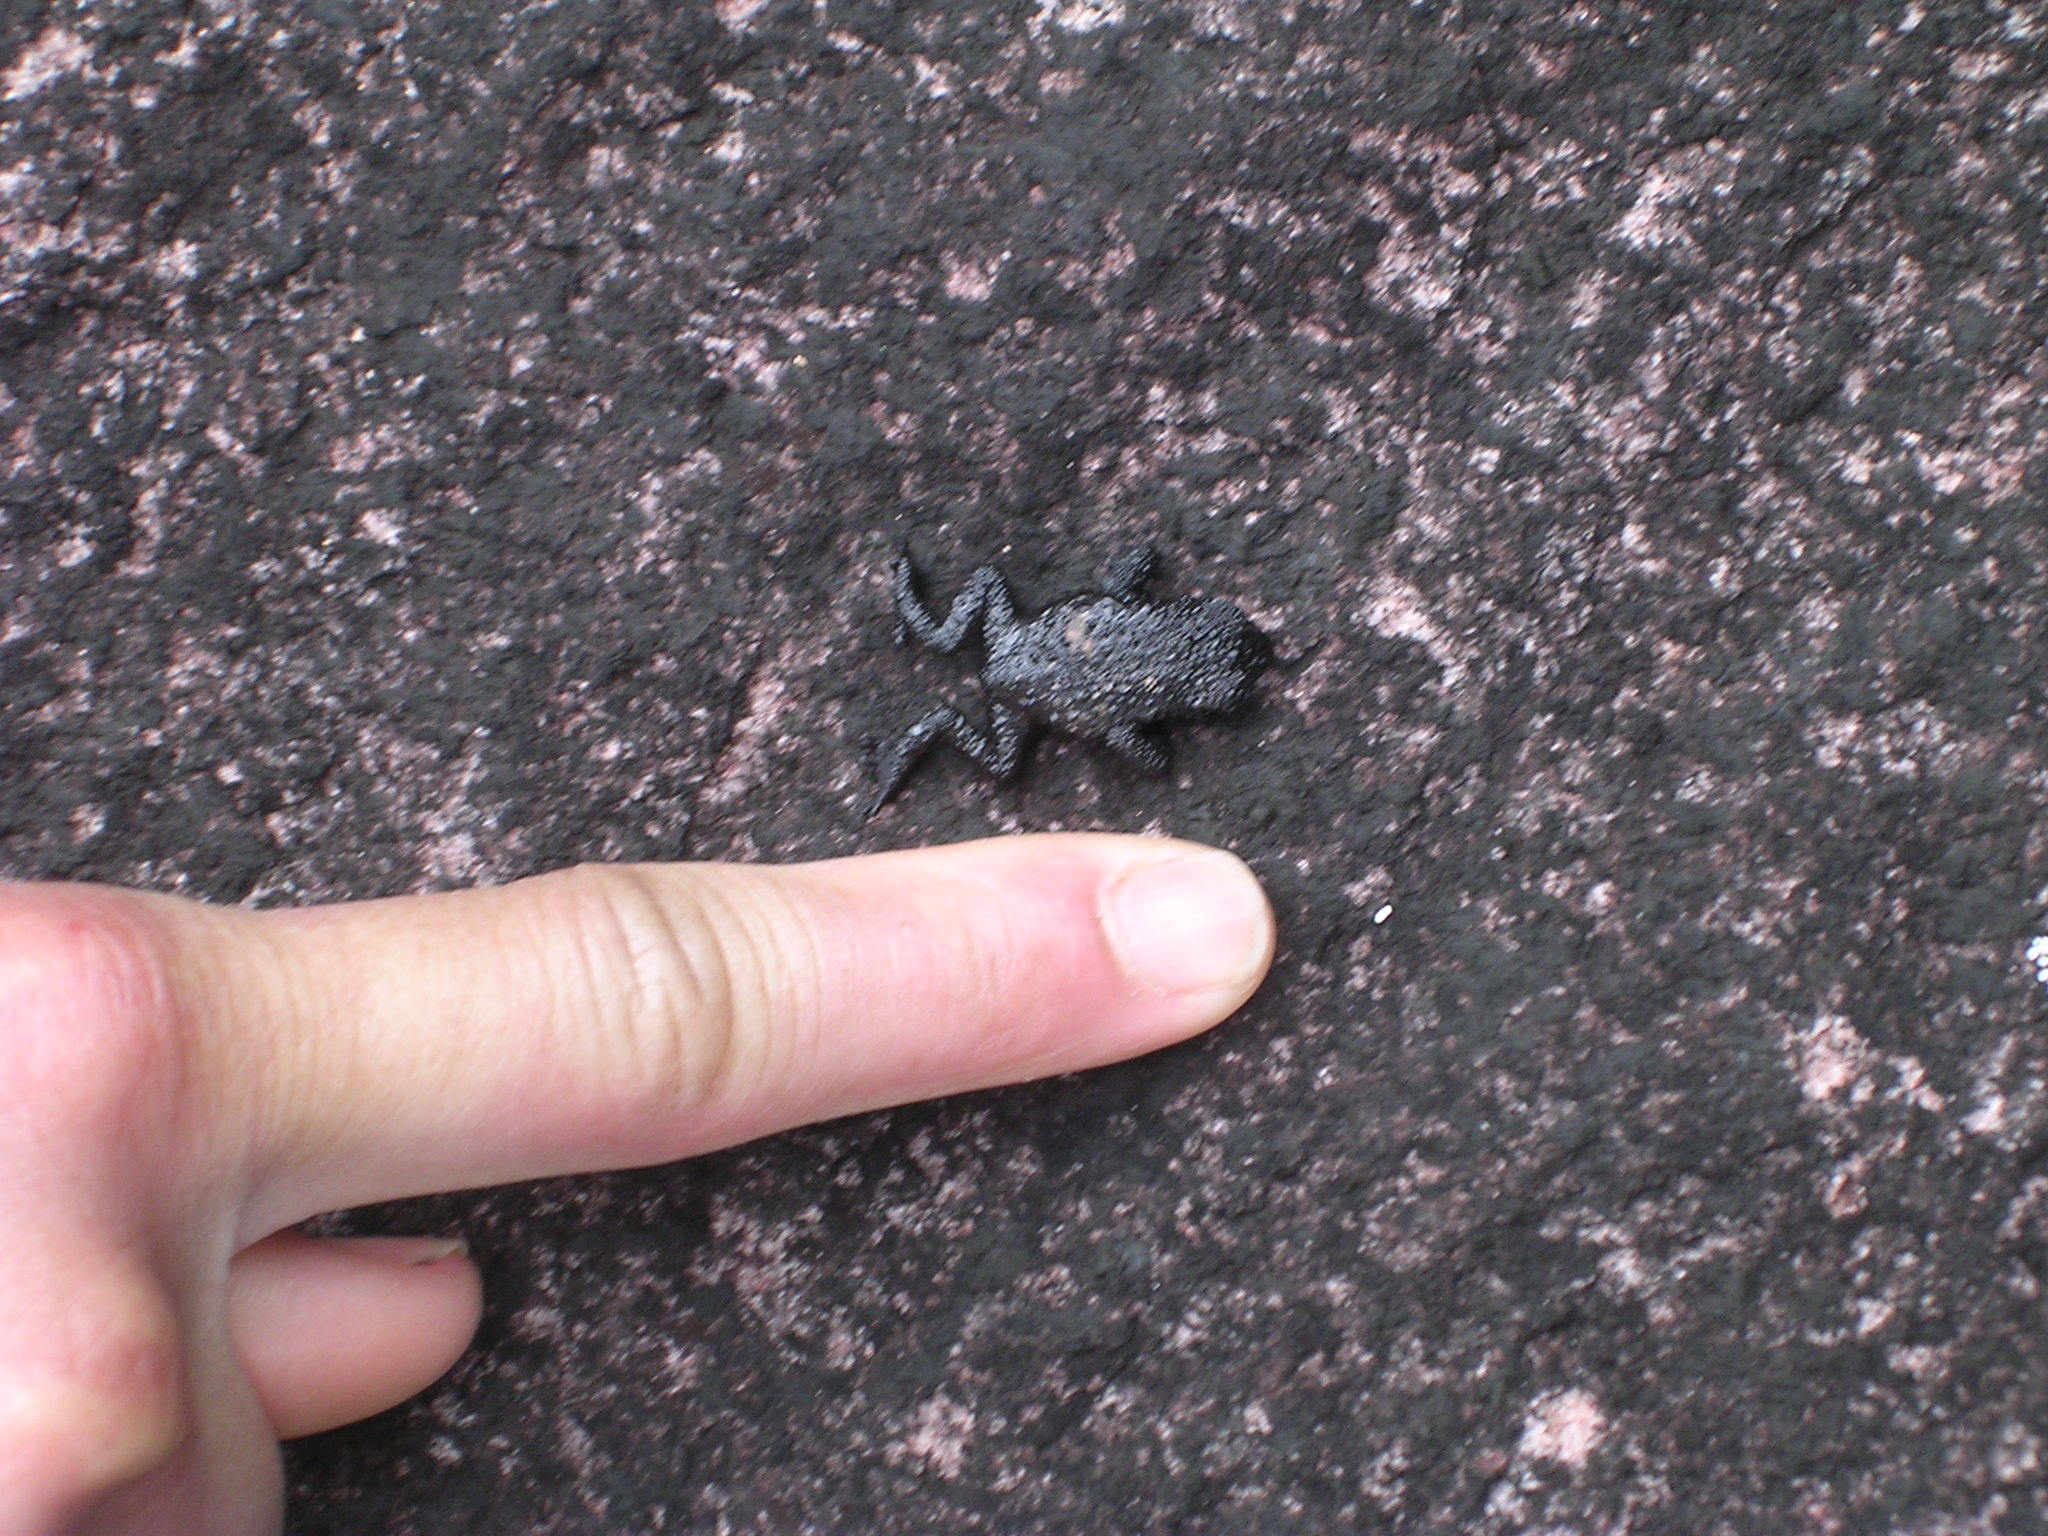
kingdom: Animalia
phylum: Chordata
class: Amphibia
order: Anura
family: Bufonidae
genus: Oreophrynella
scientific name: Oreophrynella quelchii
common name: Roraima bush toad
